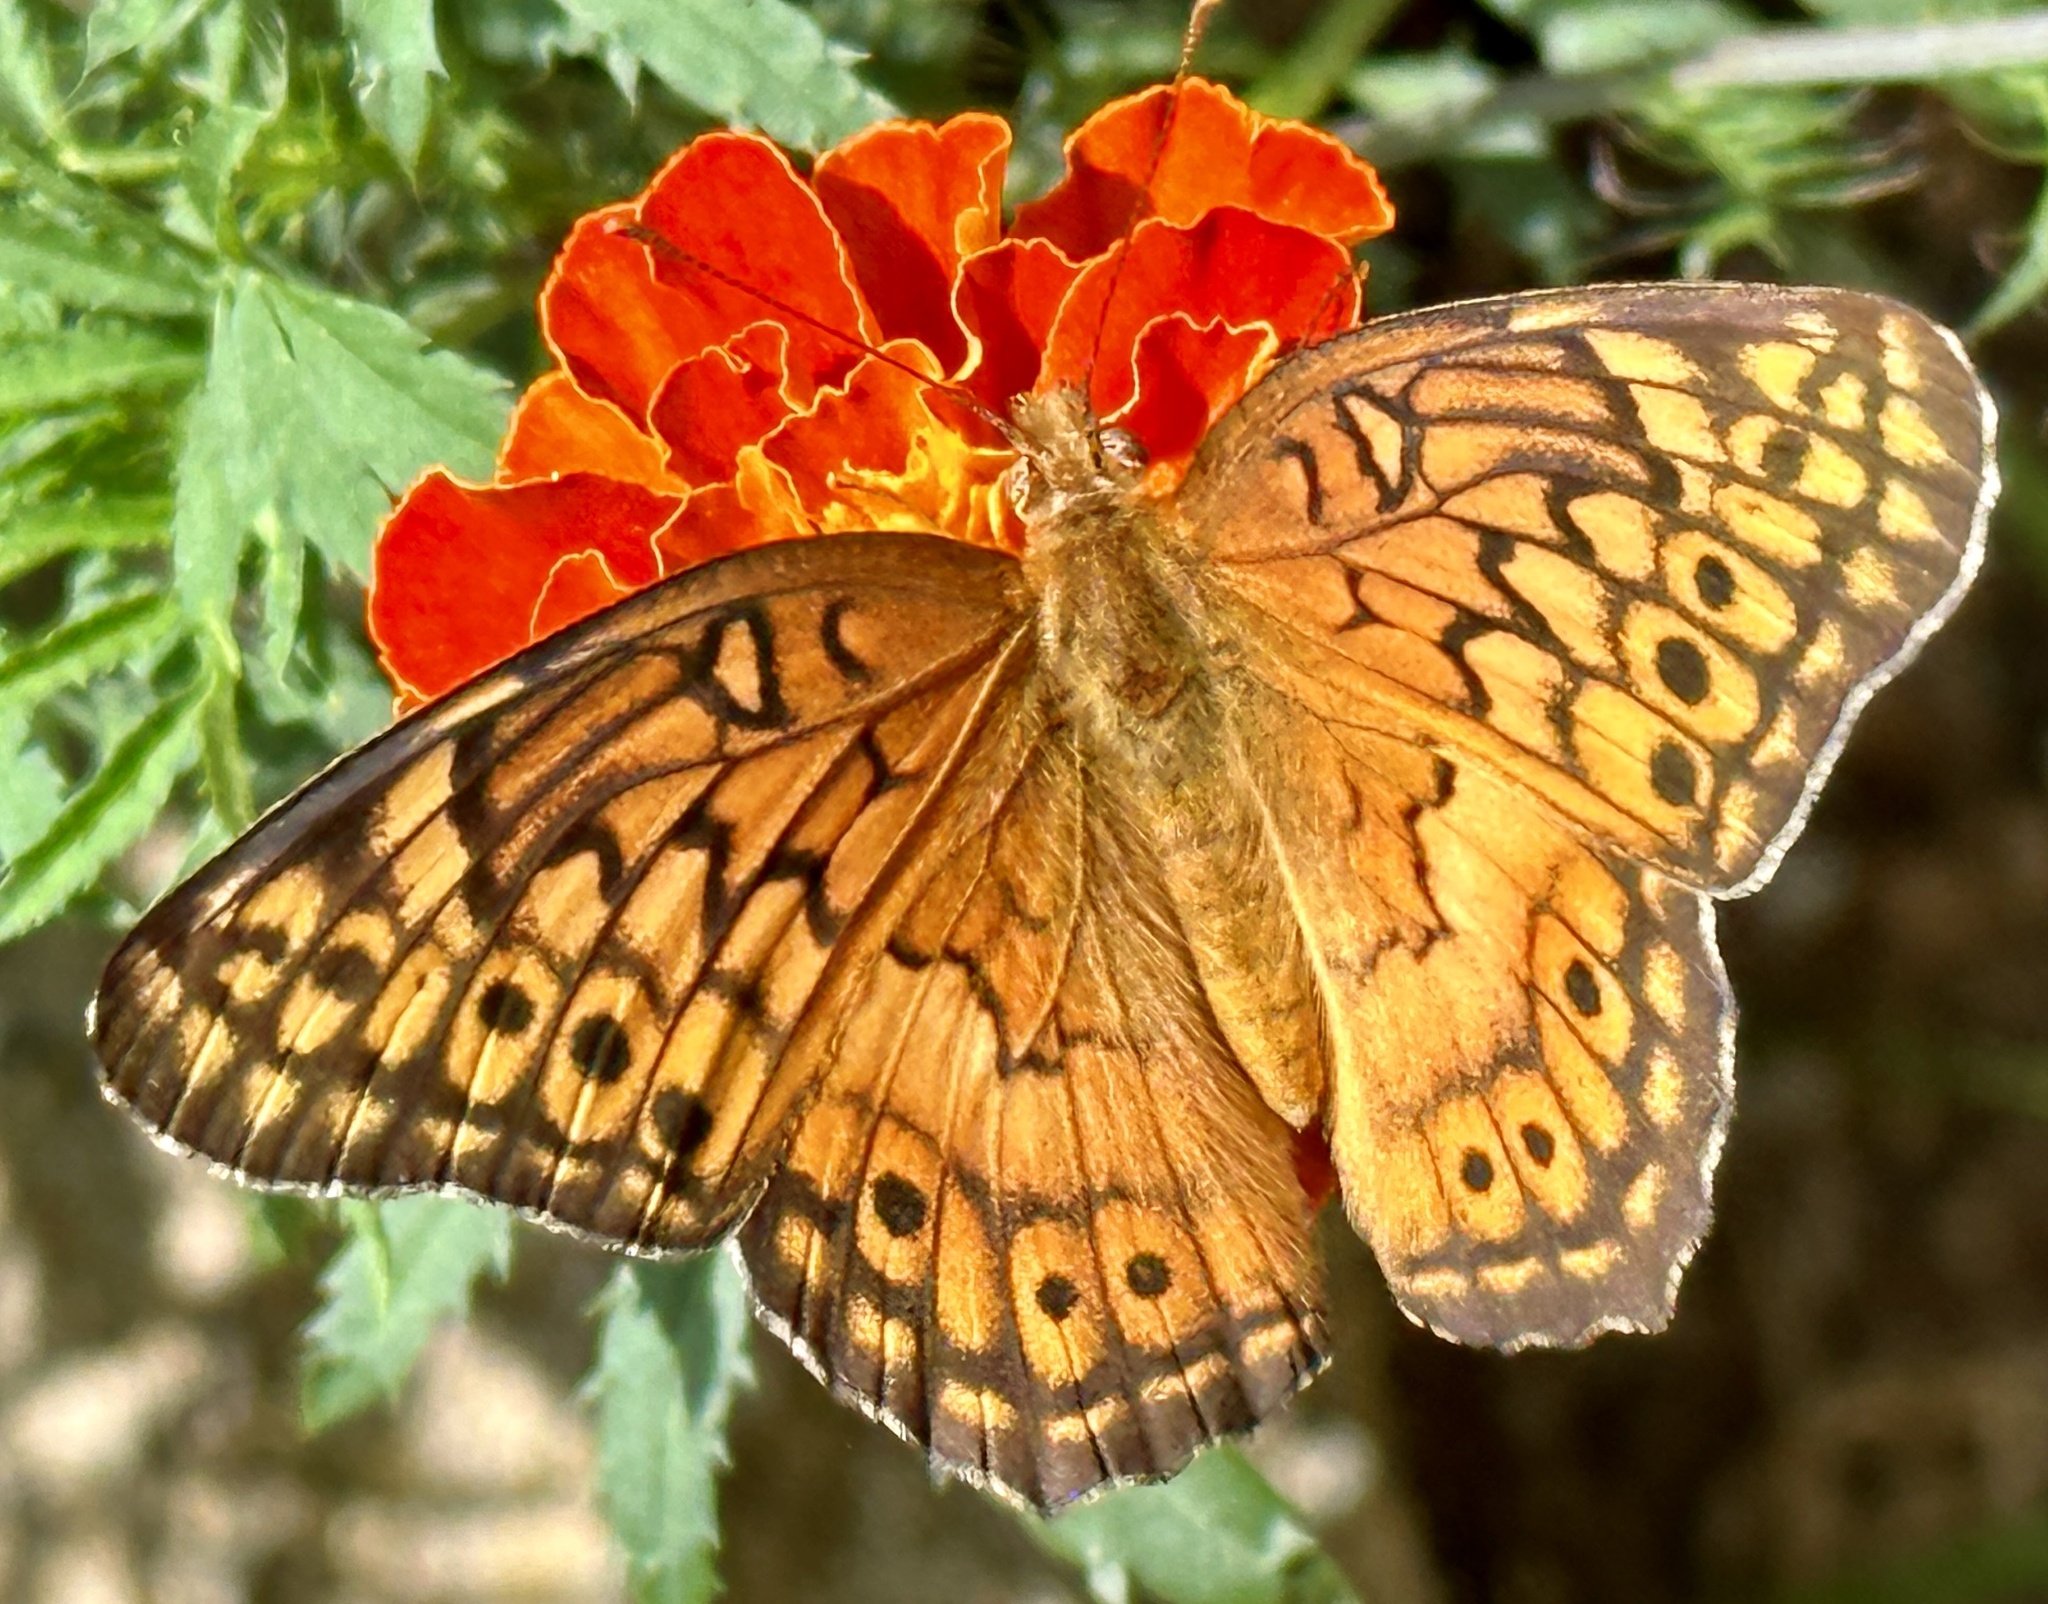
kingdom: Animalia
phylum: Arthropoda
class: Insecta
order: Lepidoptera
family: Nymphalidae
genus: Euptoieta
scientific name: Euptoieta claudia
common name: Variegated fritillary
